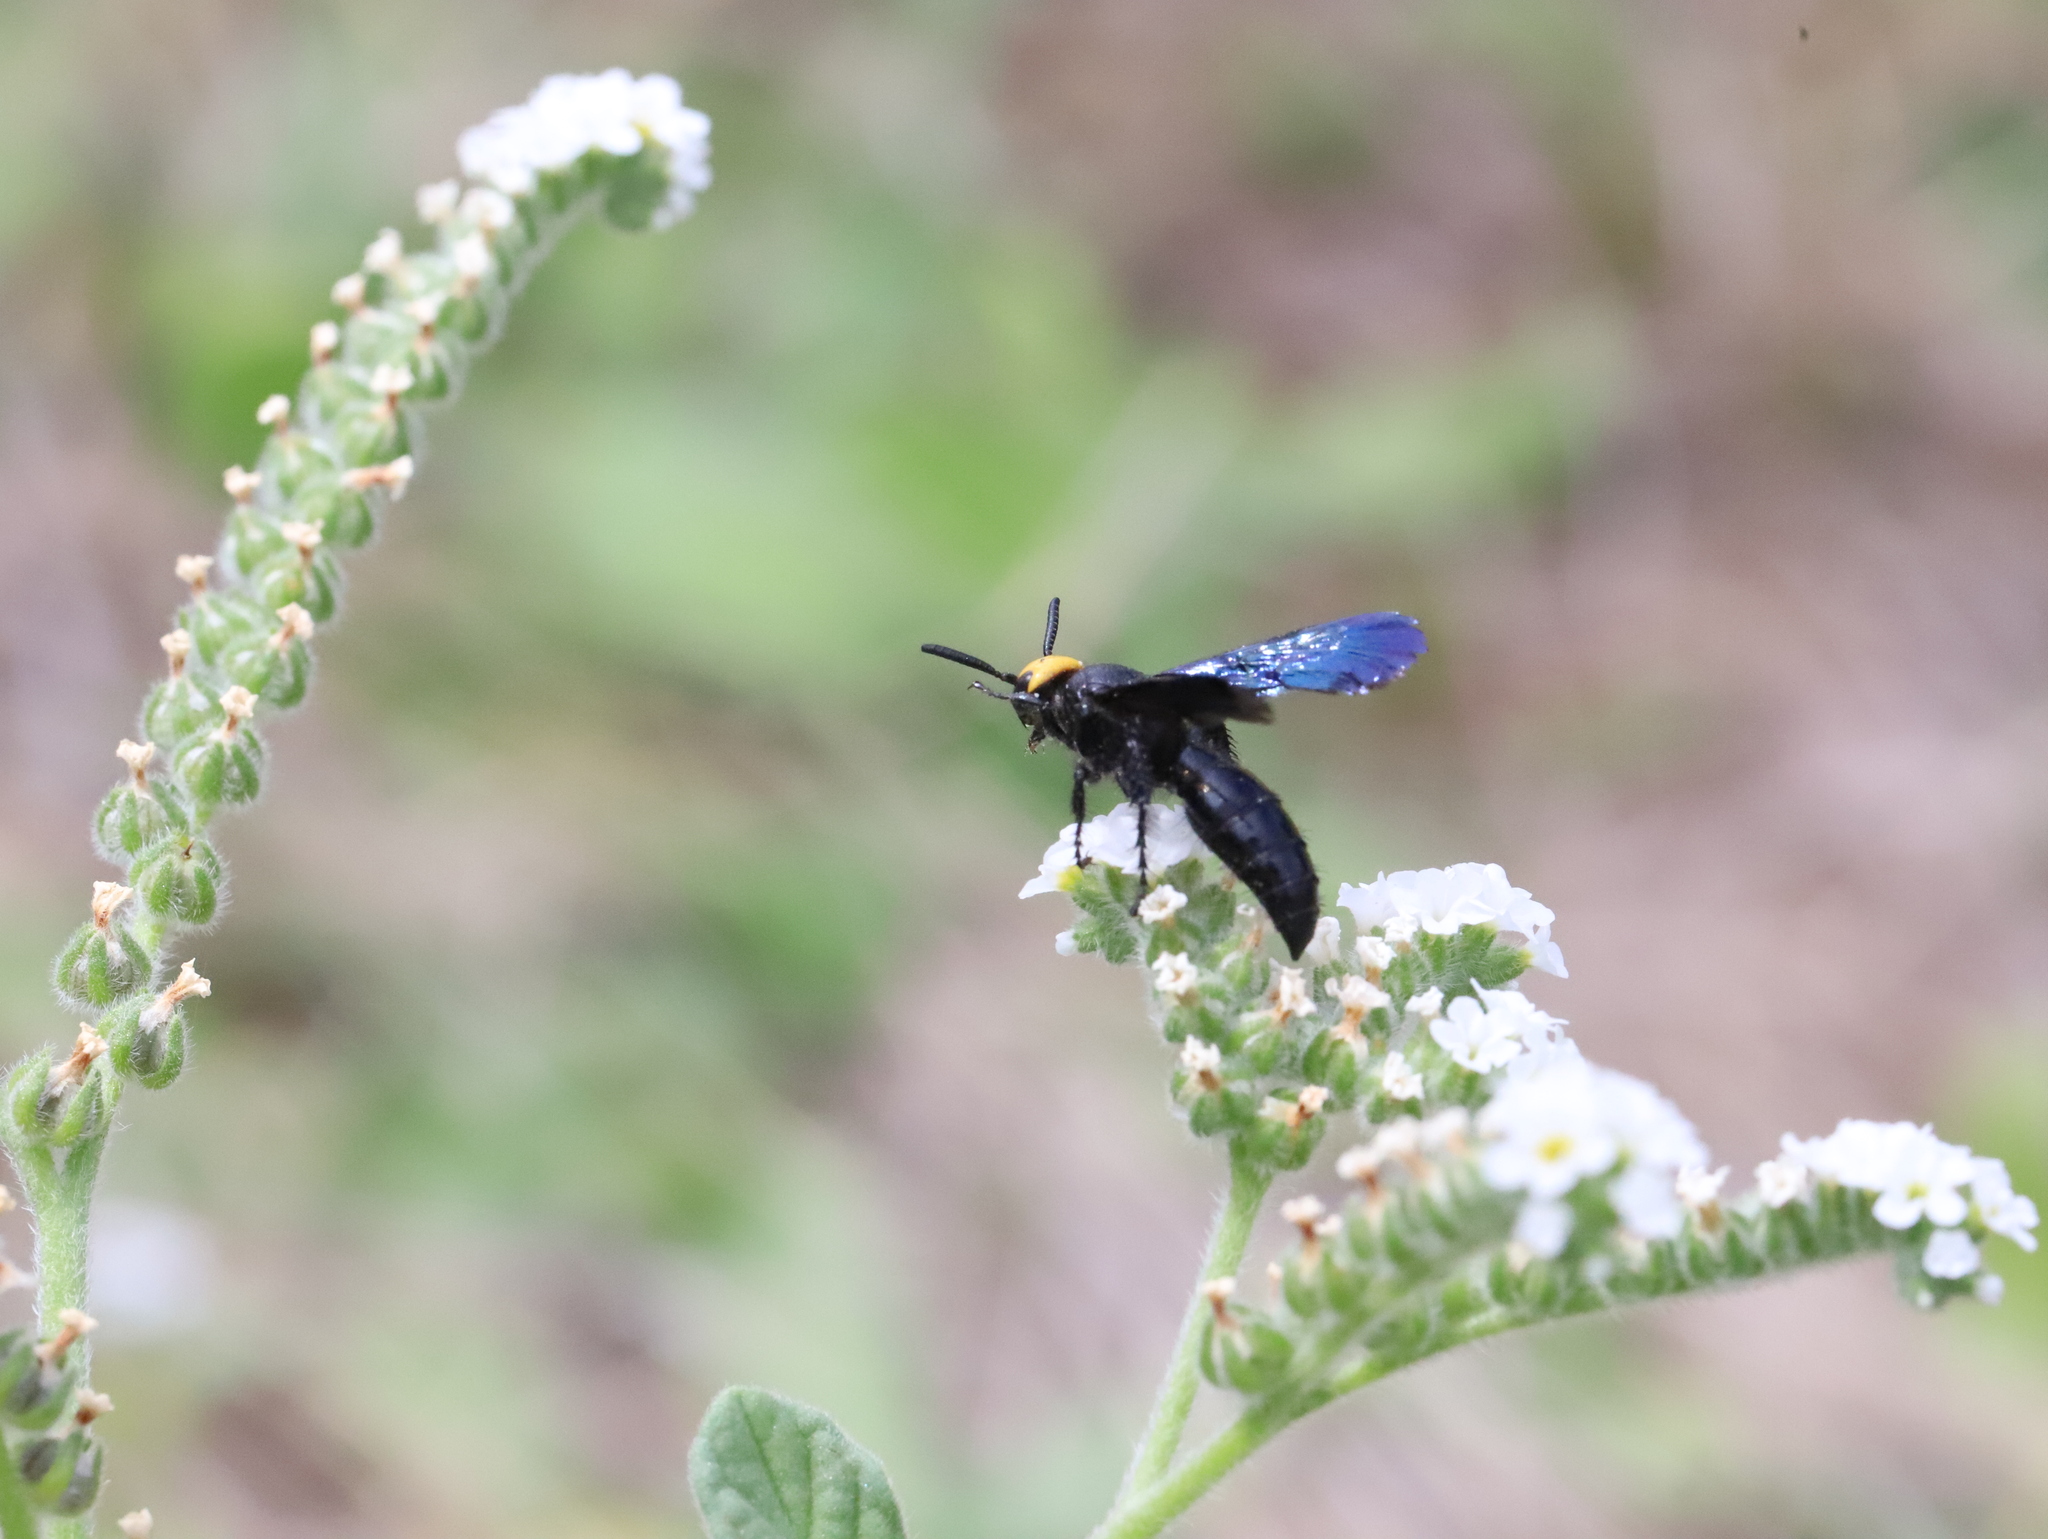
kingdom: Animalia
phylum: Arthropoda
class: Insecta
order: Hymenoptera
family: Scoliidae
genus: Scolia
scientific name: Scolia verticalis
